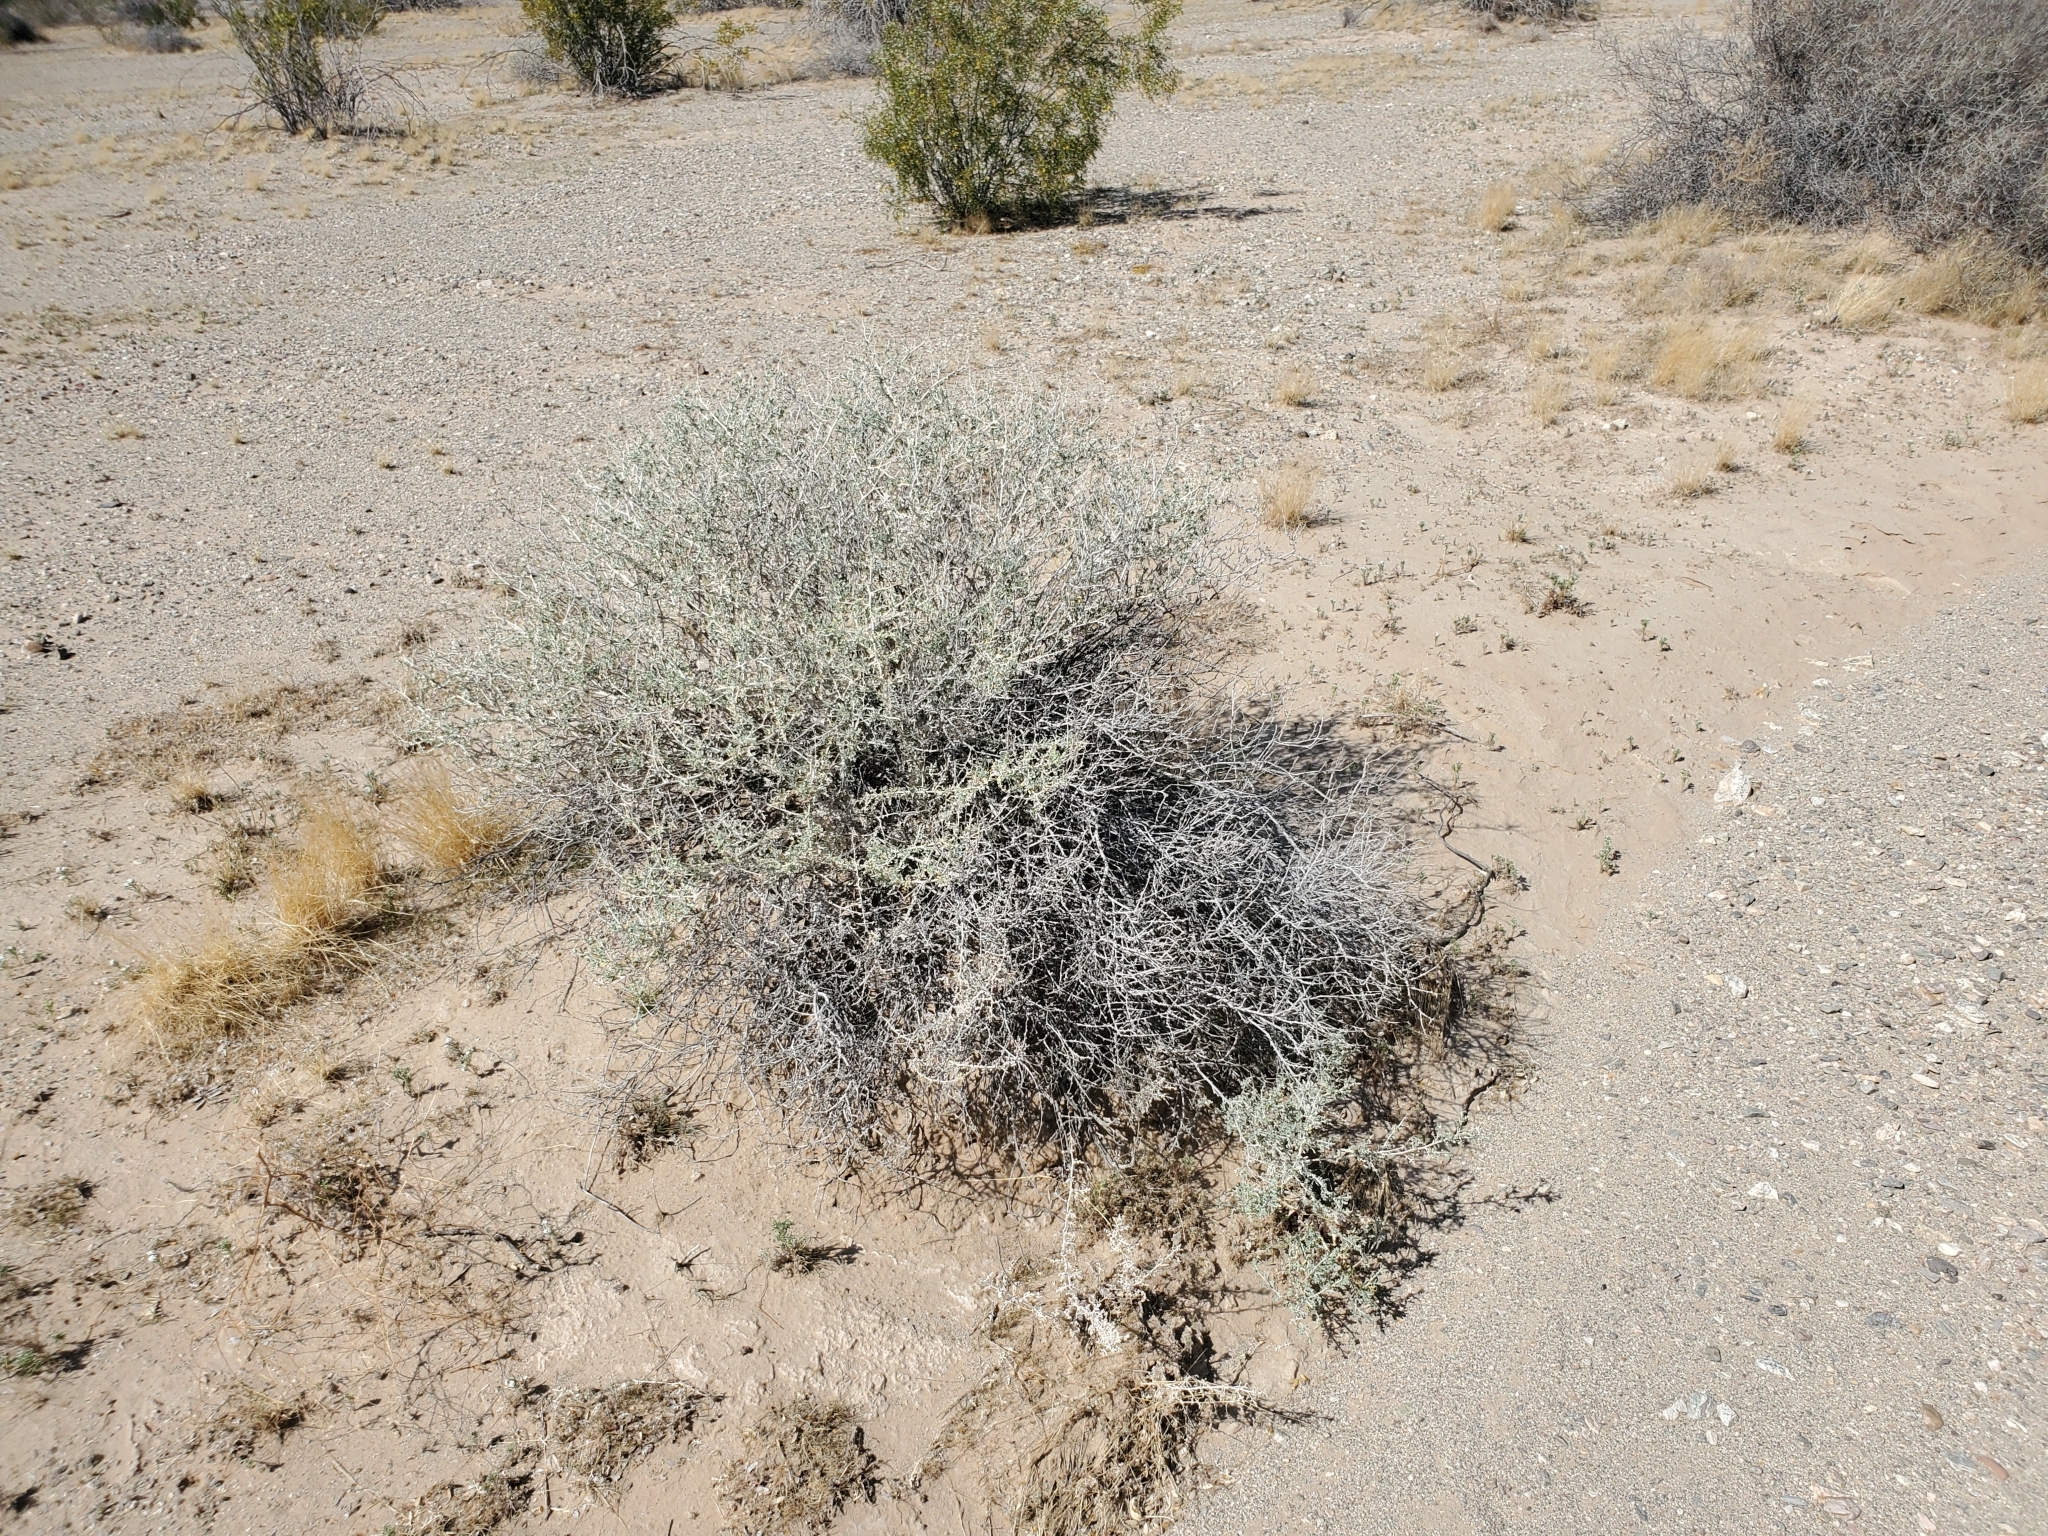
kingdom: Plantae
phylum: Tracheophyta
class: Magnoliopsida
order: Asterales
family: Asteraceae
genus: Ambrosia
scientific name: Ambrosia dumosa
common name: Bur-sage
